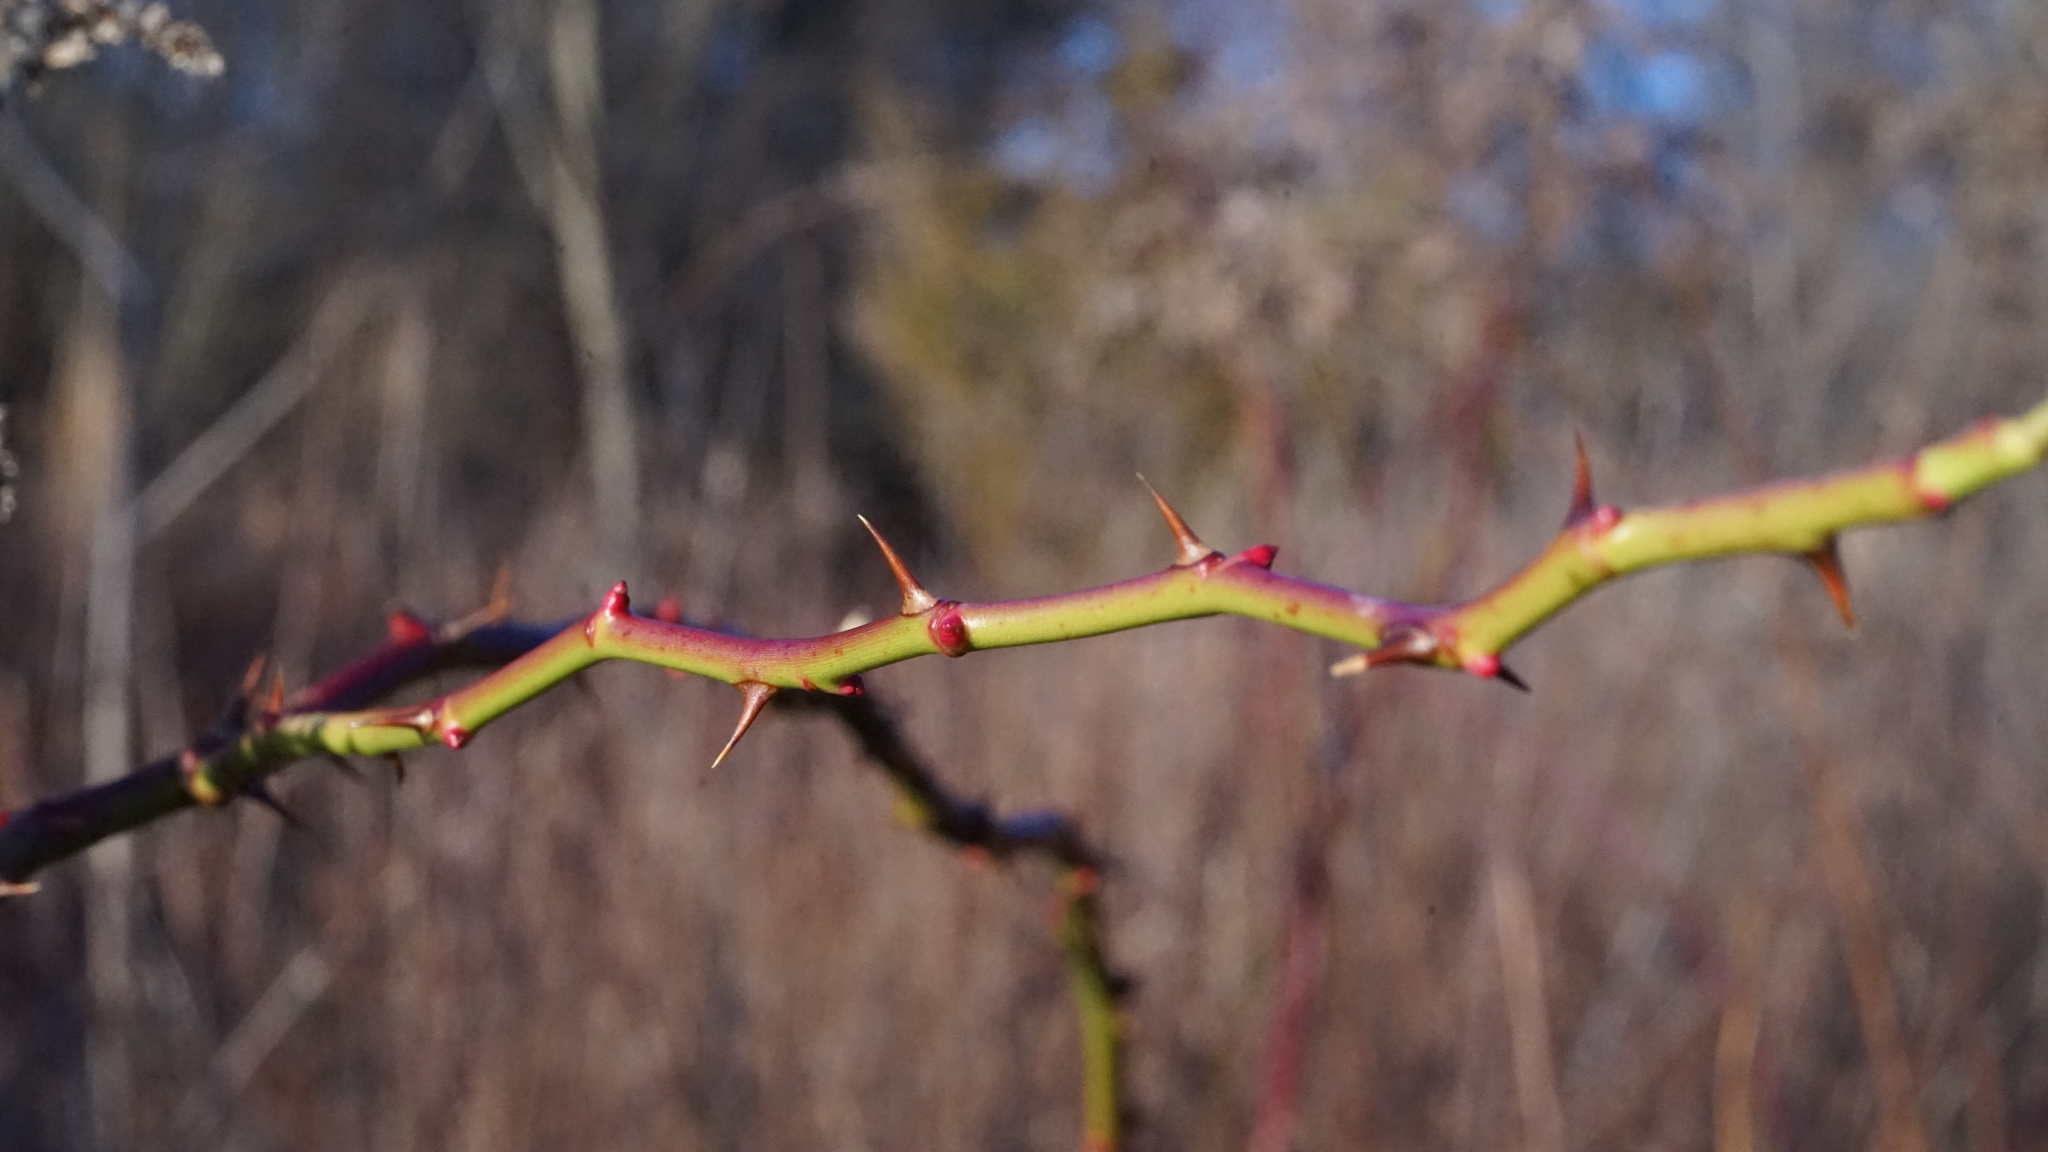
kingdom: Plantae
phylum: Tracheophyta
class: Magnoliopsida
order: Rosales
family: Rosaceae
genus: Rosa
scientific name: Rosa multiflora
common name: Multiflora rose
